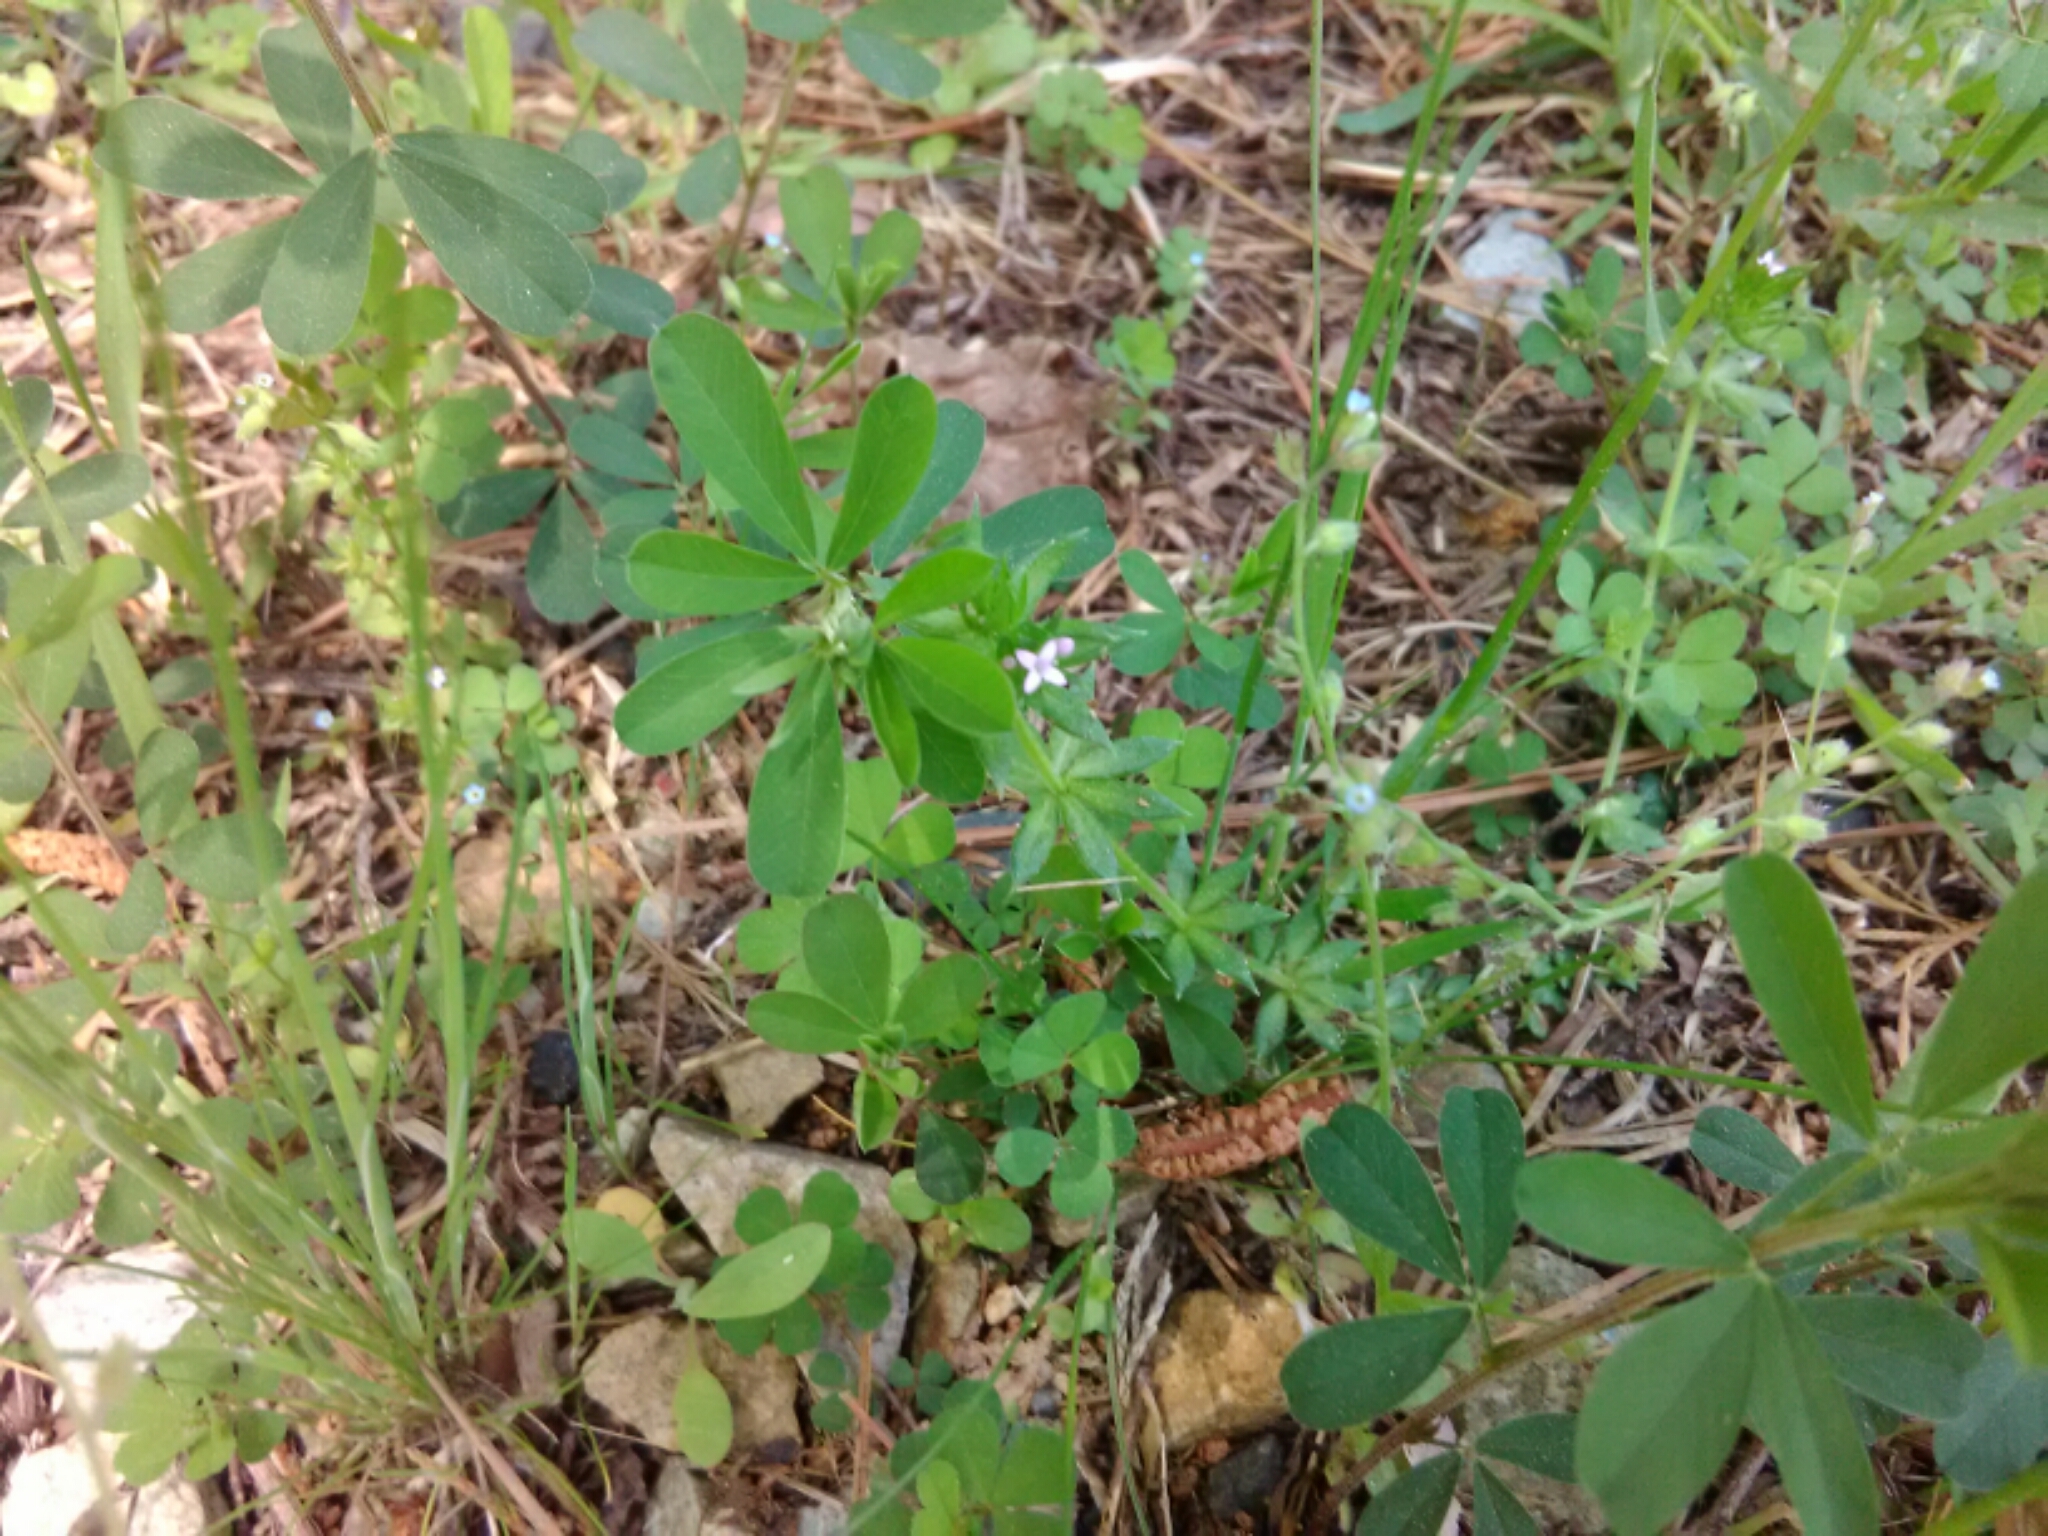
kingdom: Plantae
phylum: Tracheophyta
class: Magnoliopsida
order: Gentianales
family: Rubiaceae
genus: Sherardia
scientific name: Sherardia arvensis
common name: Field madder
